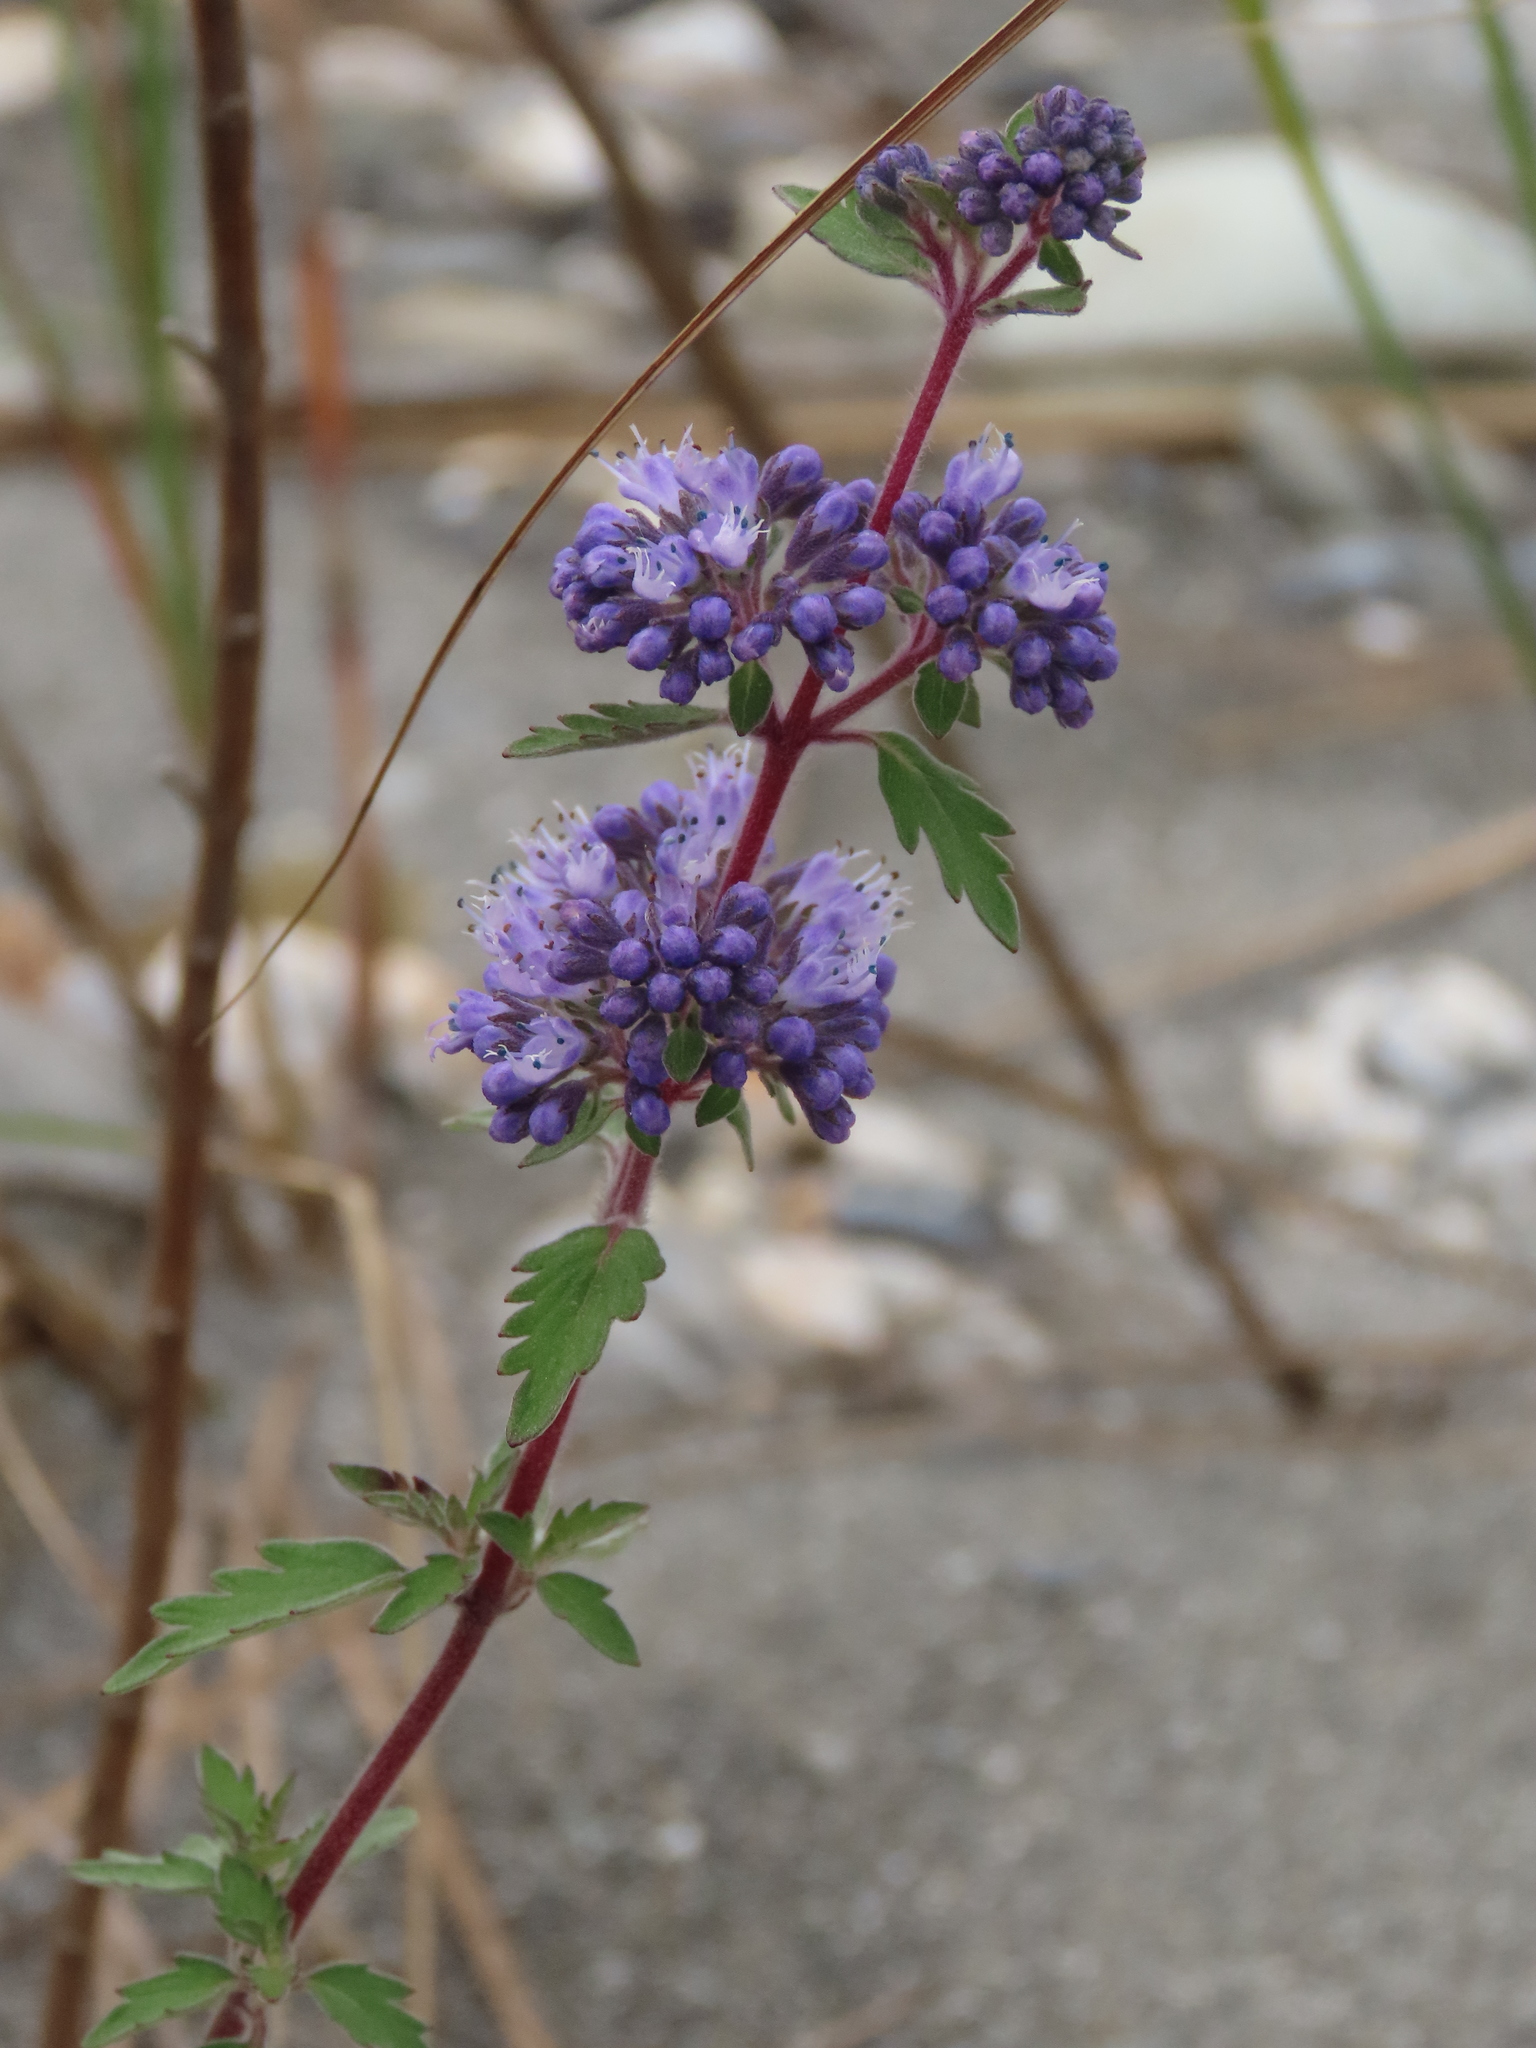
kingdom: Plantae
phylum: Tracheophyta
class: Magnoliopsida
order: Lamiales
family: Lamiaceae
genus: Caryopteris
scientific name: Caryopteris incana
